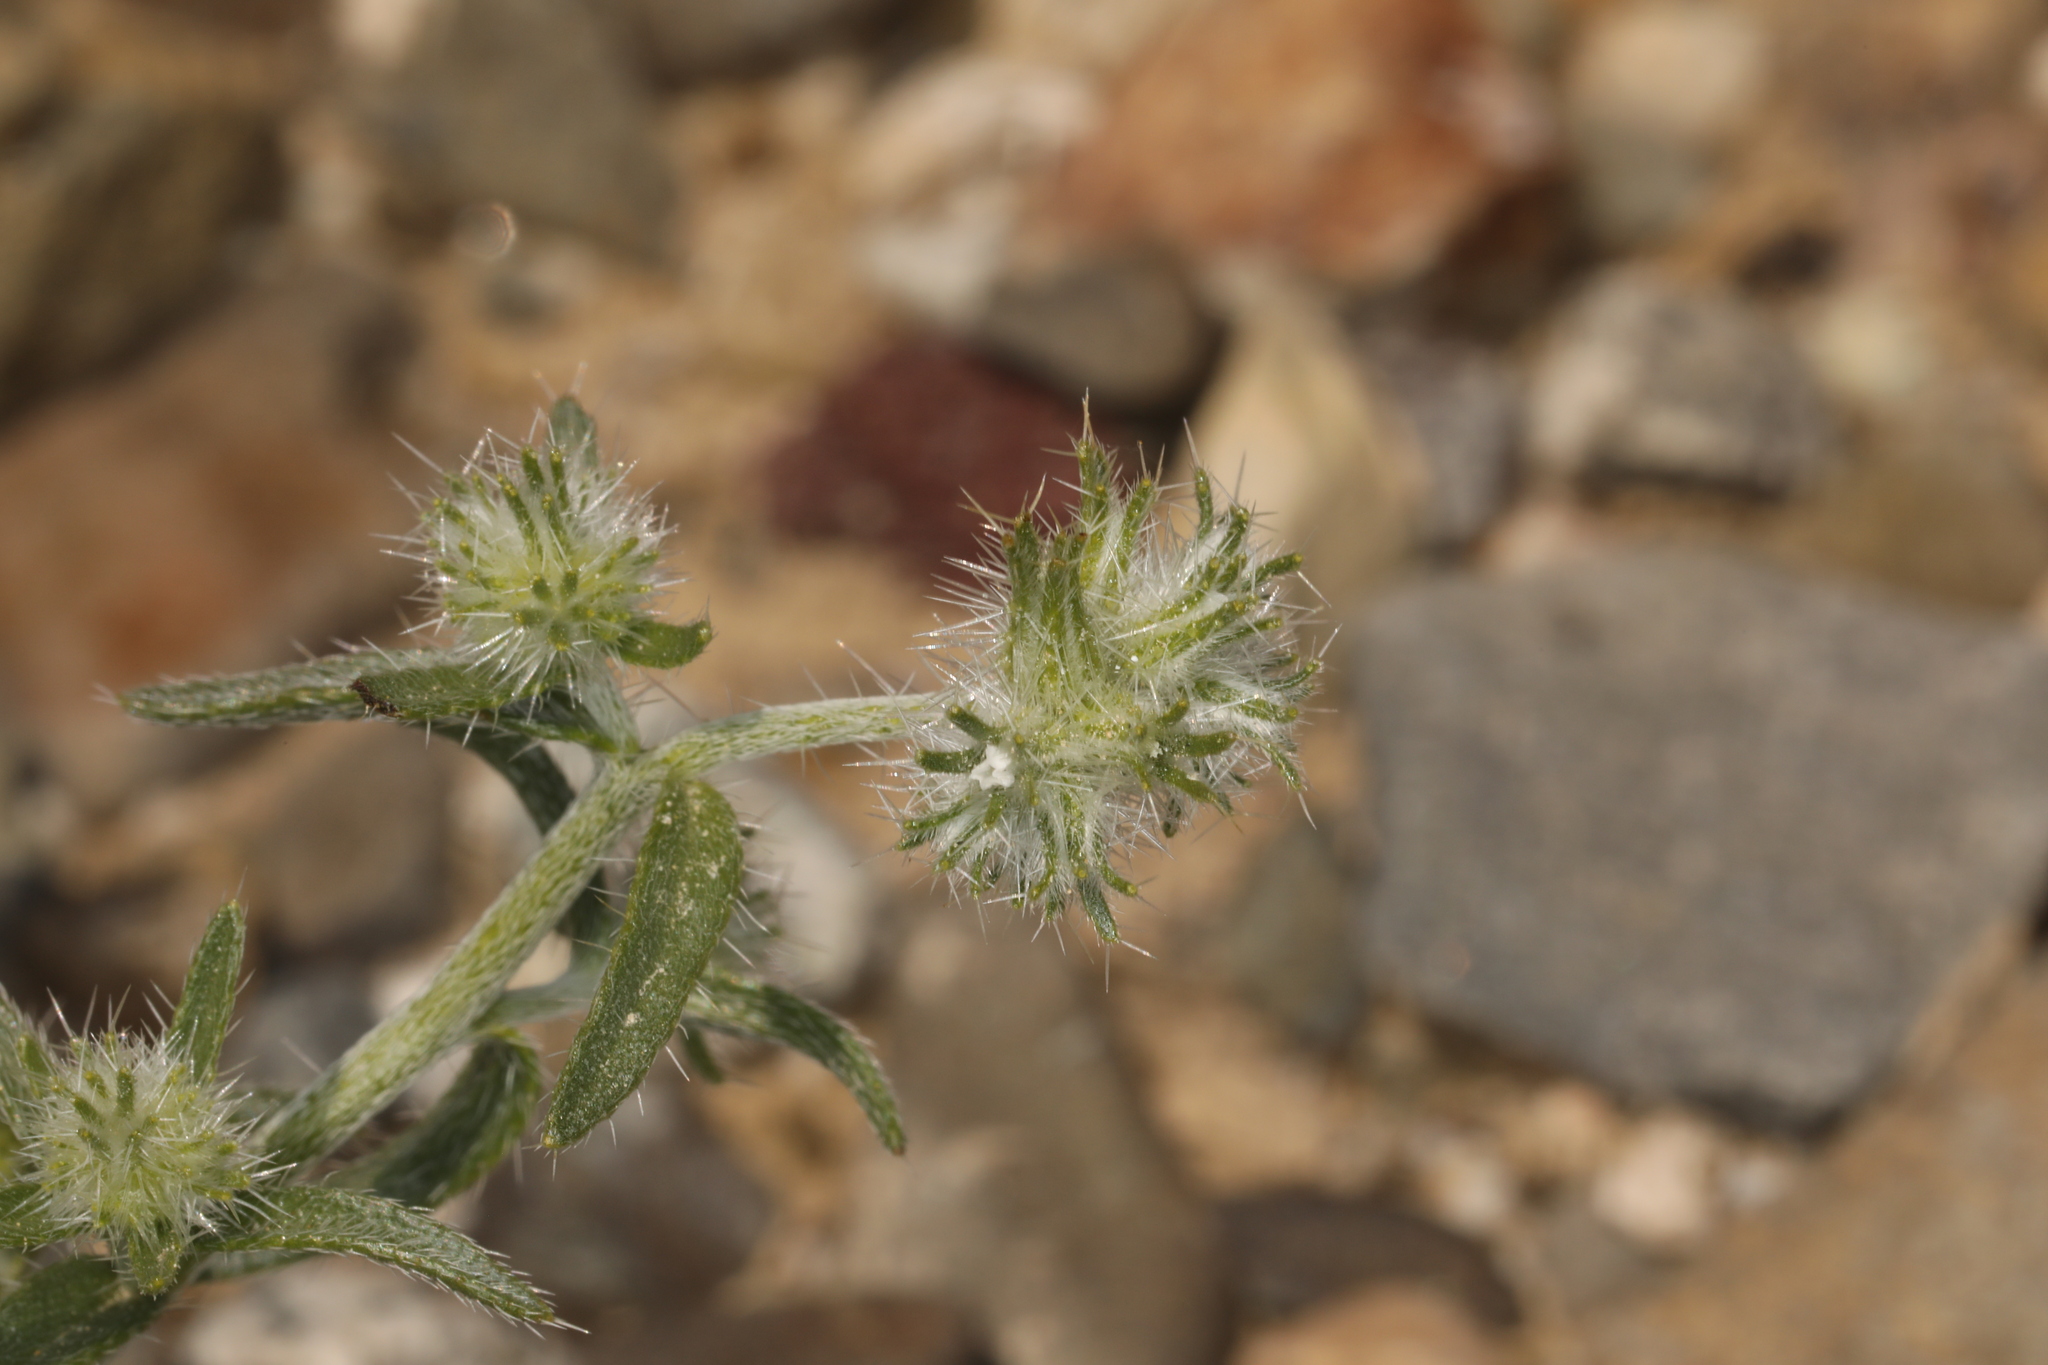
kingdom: Plantae
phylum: Tracheophyta
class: Magnoliopsida
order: Boraginales
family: Boraginaceae
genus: Cryptantha
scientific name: Cryptantha nevadensis
